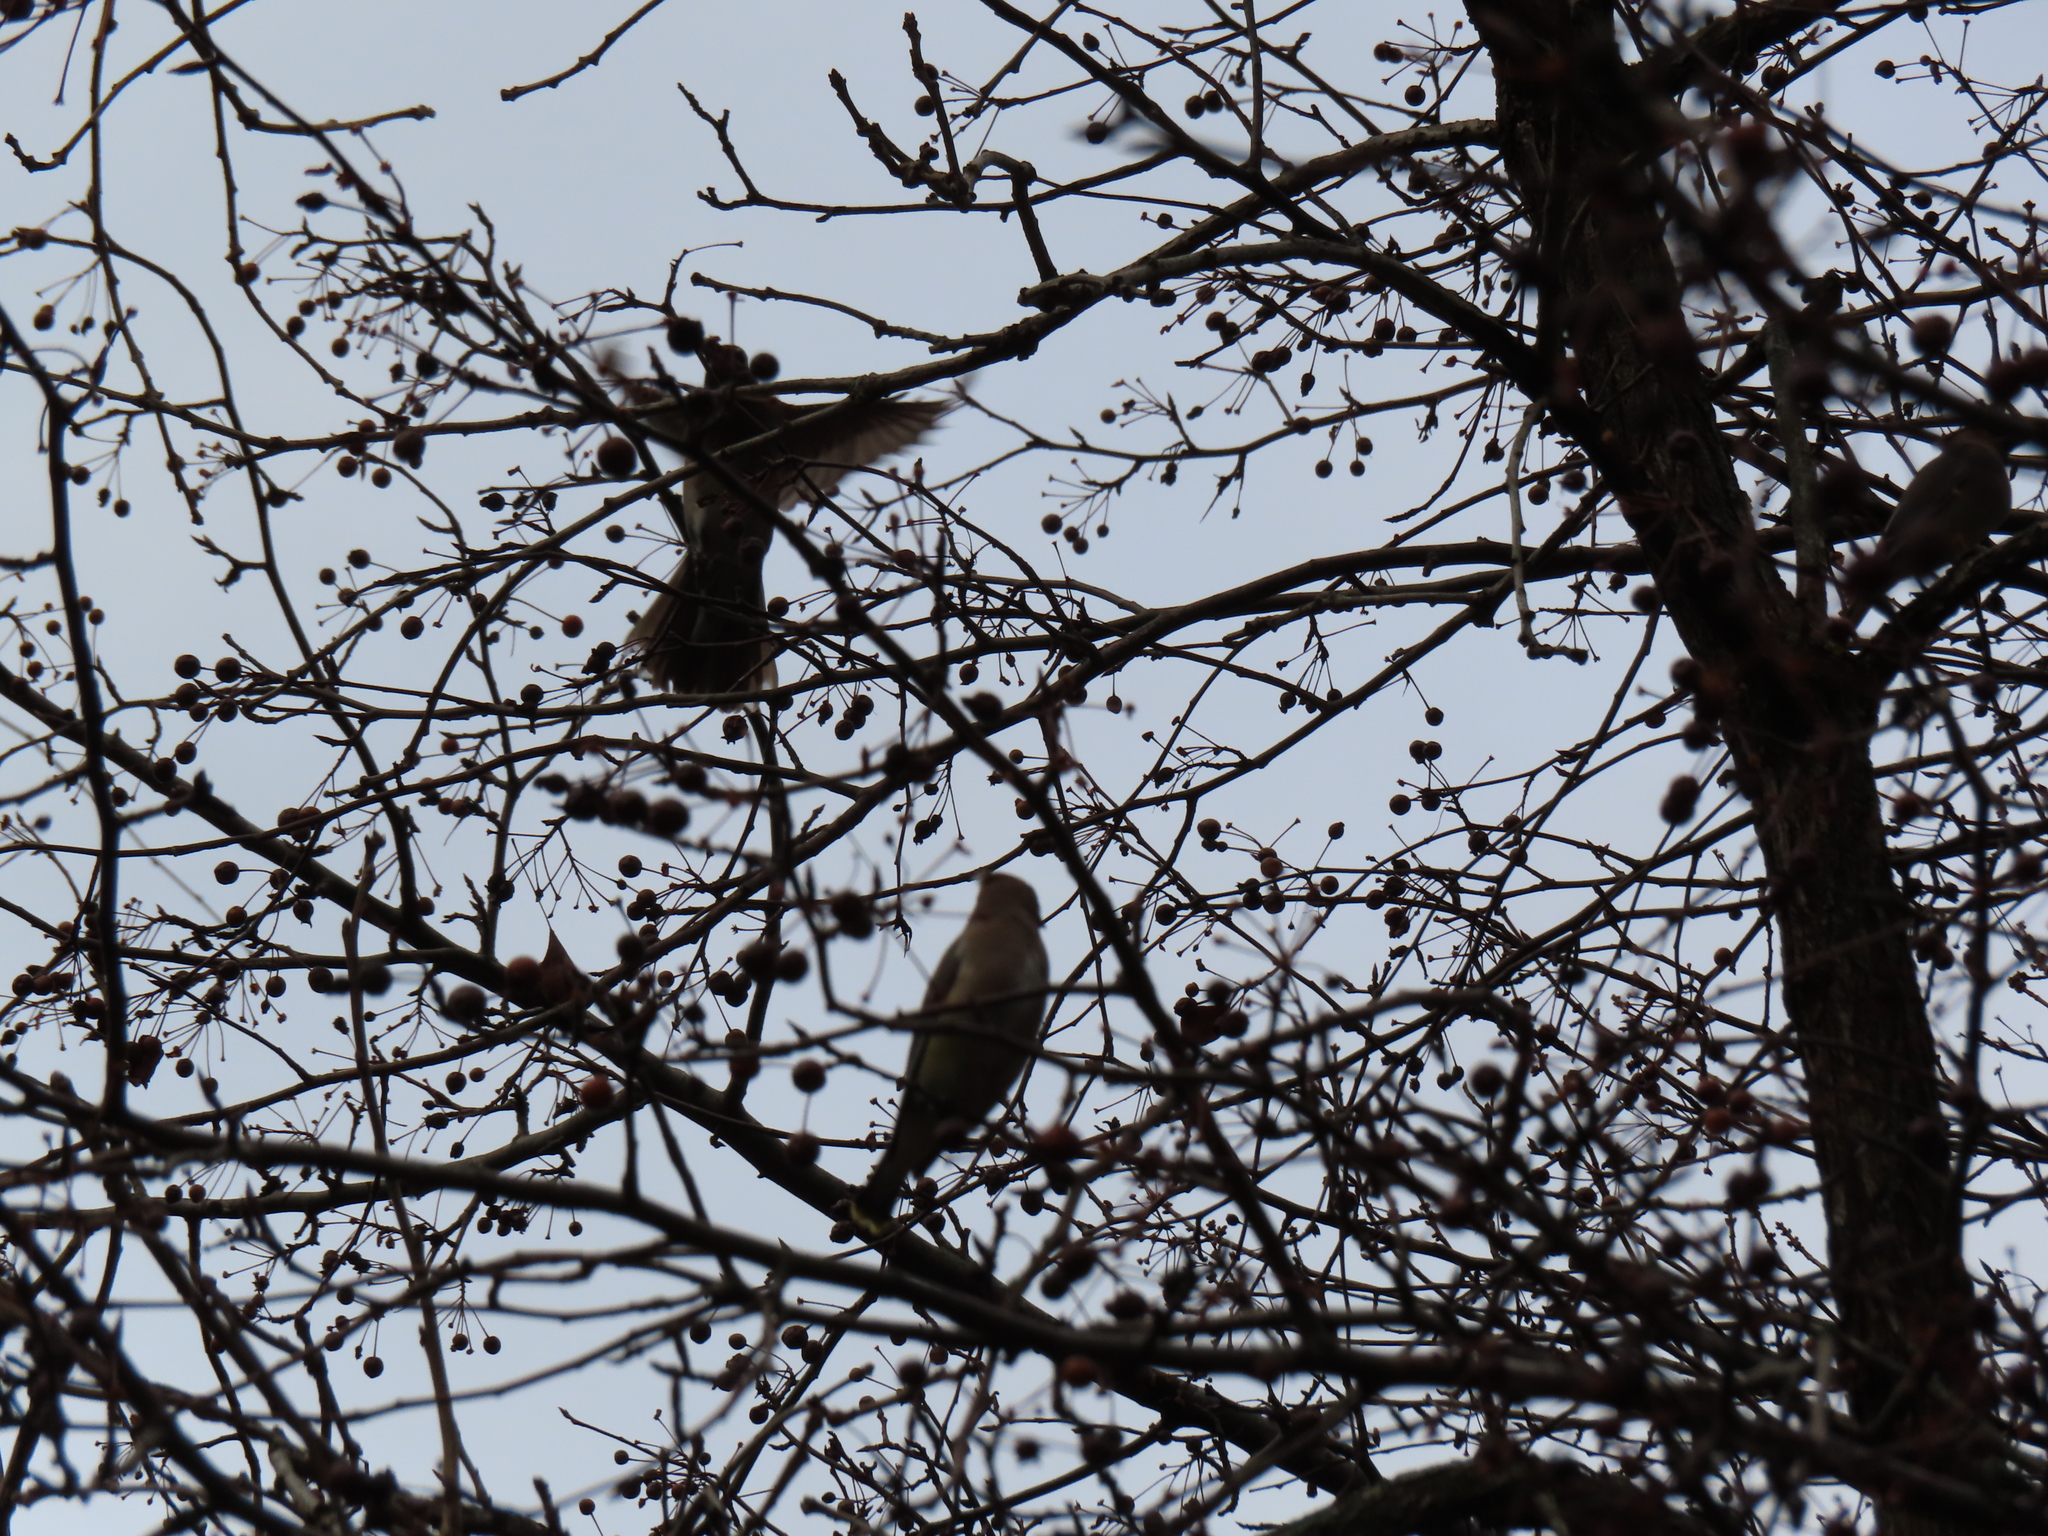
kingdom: Animalia
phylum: Chordata
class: Aves
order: Passeriformes
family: Bombycillidae
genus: Bombycilla
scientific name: Bombycilla cedrorum
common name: Cedar waxwing
